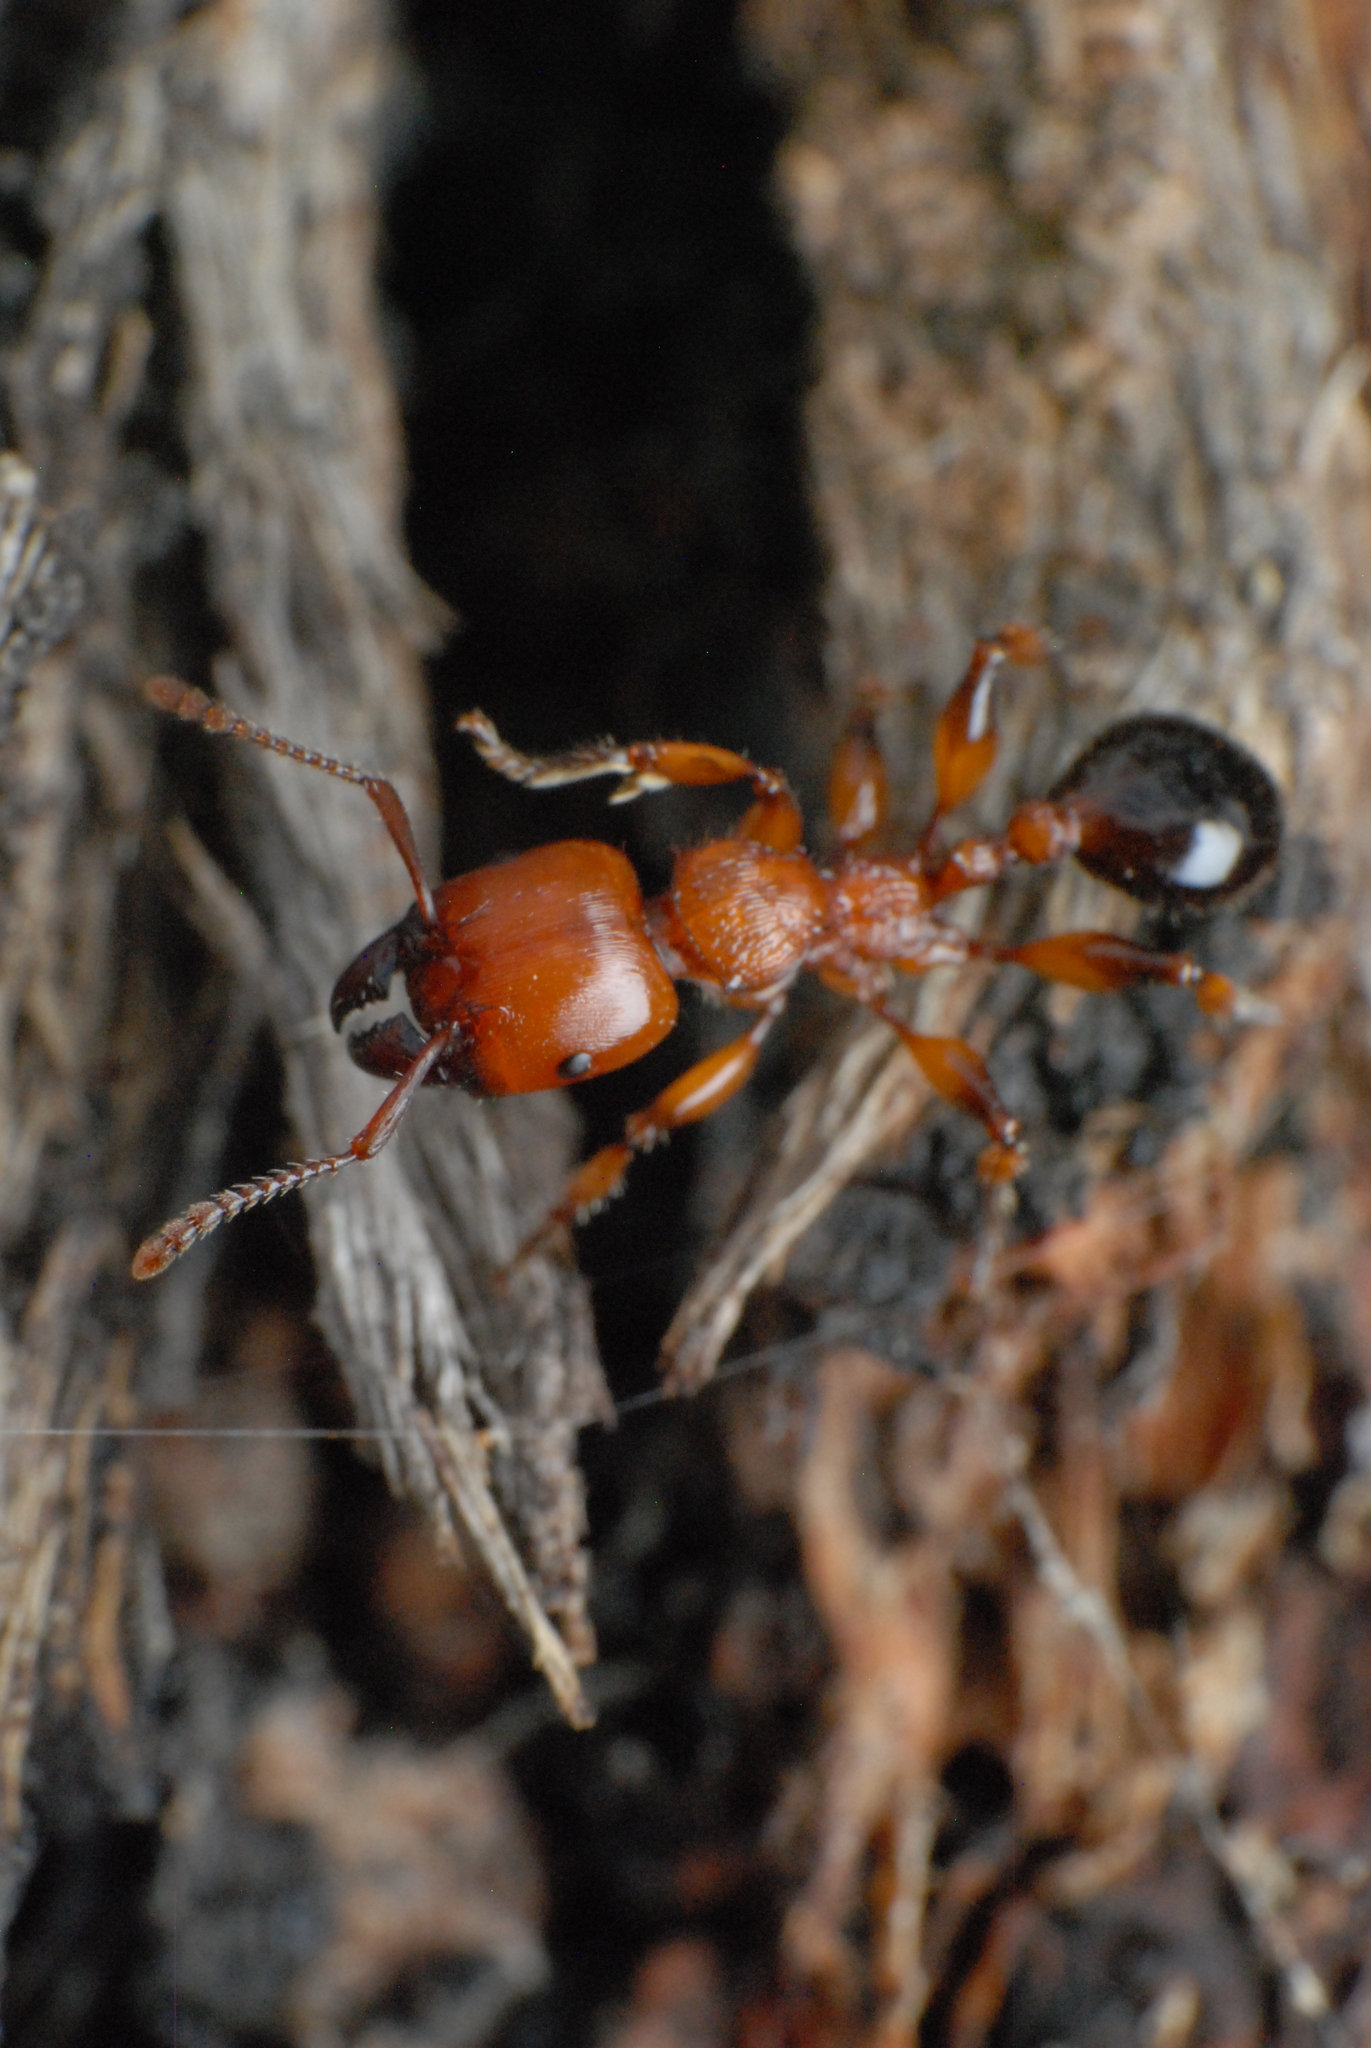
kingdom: Animalia
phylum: Arthropoda
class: Insecta
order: Hymenoptera
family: Formicidae
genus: Podomyrma
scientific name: Podomyrma gratiosa
